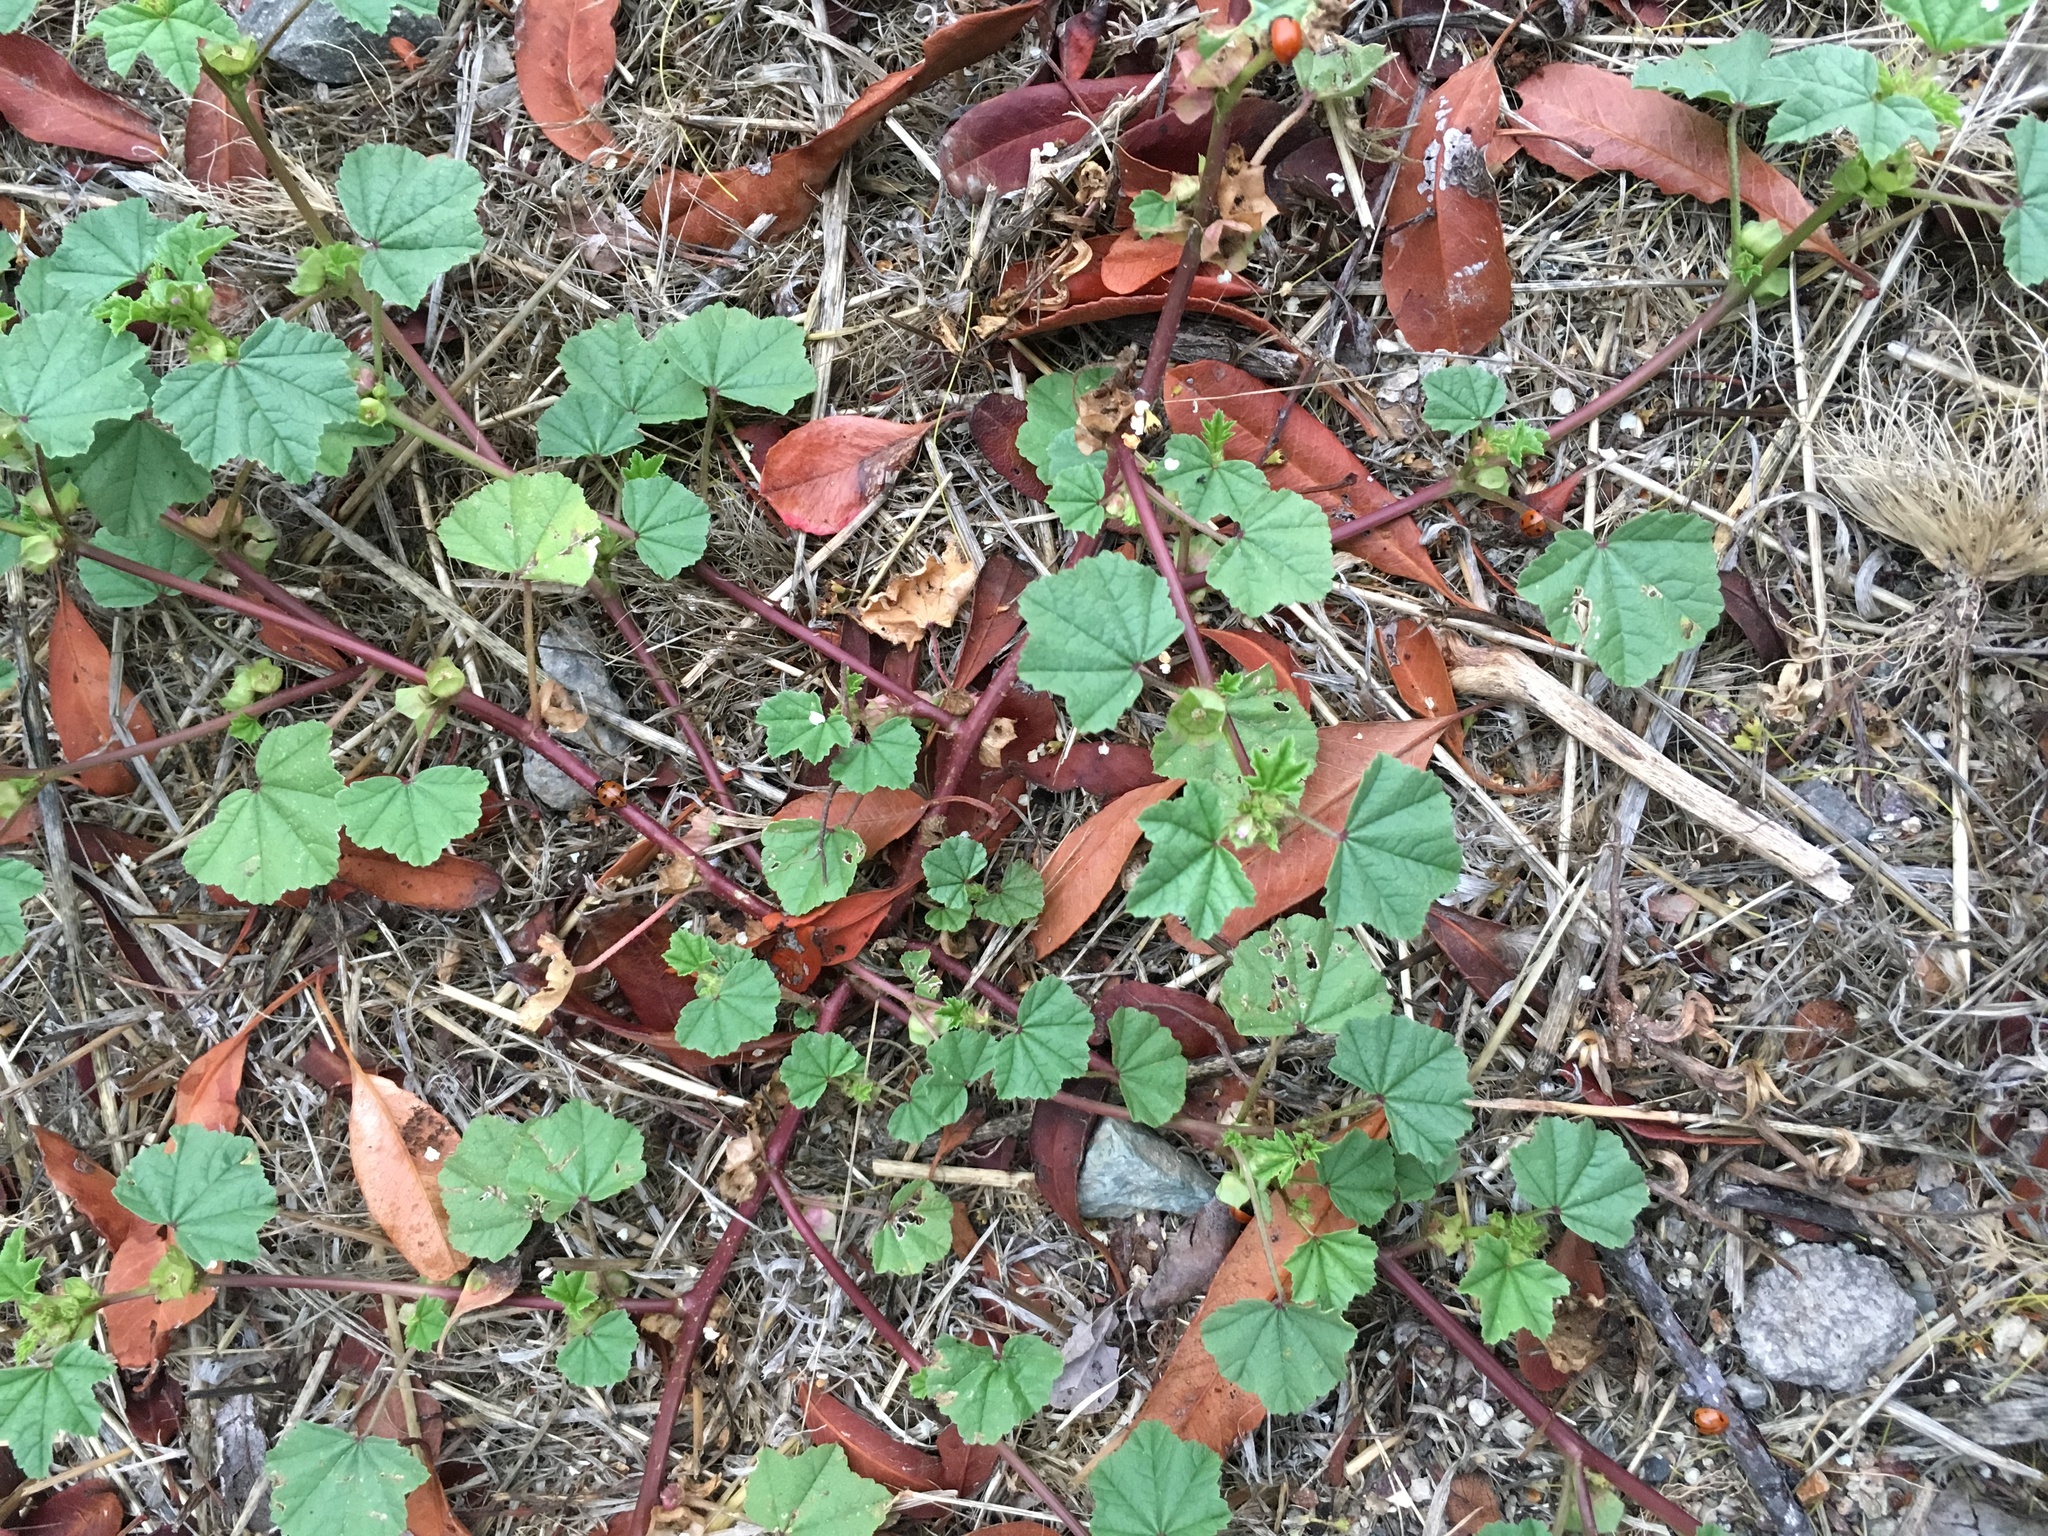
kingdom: Plantae
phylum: Tracheophyta
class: Magnoliopsida
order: Malvales
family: Malvaceae
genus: Malva
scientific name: Malva parviflora
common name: Least mallow
